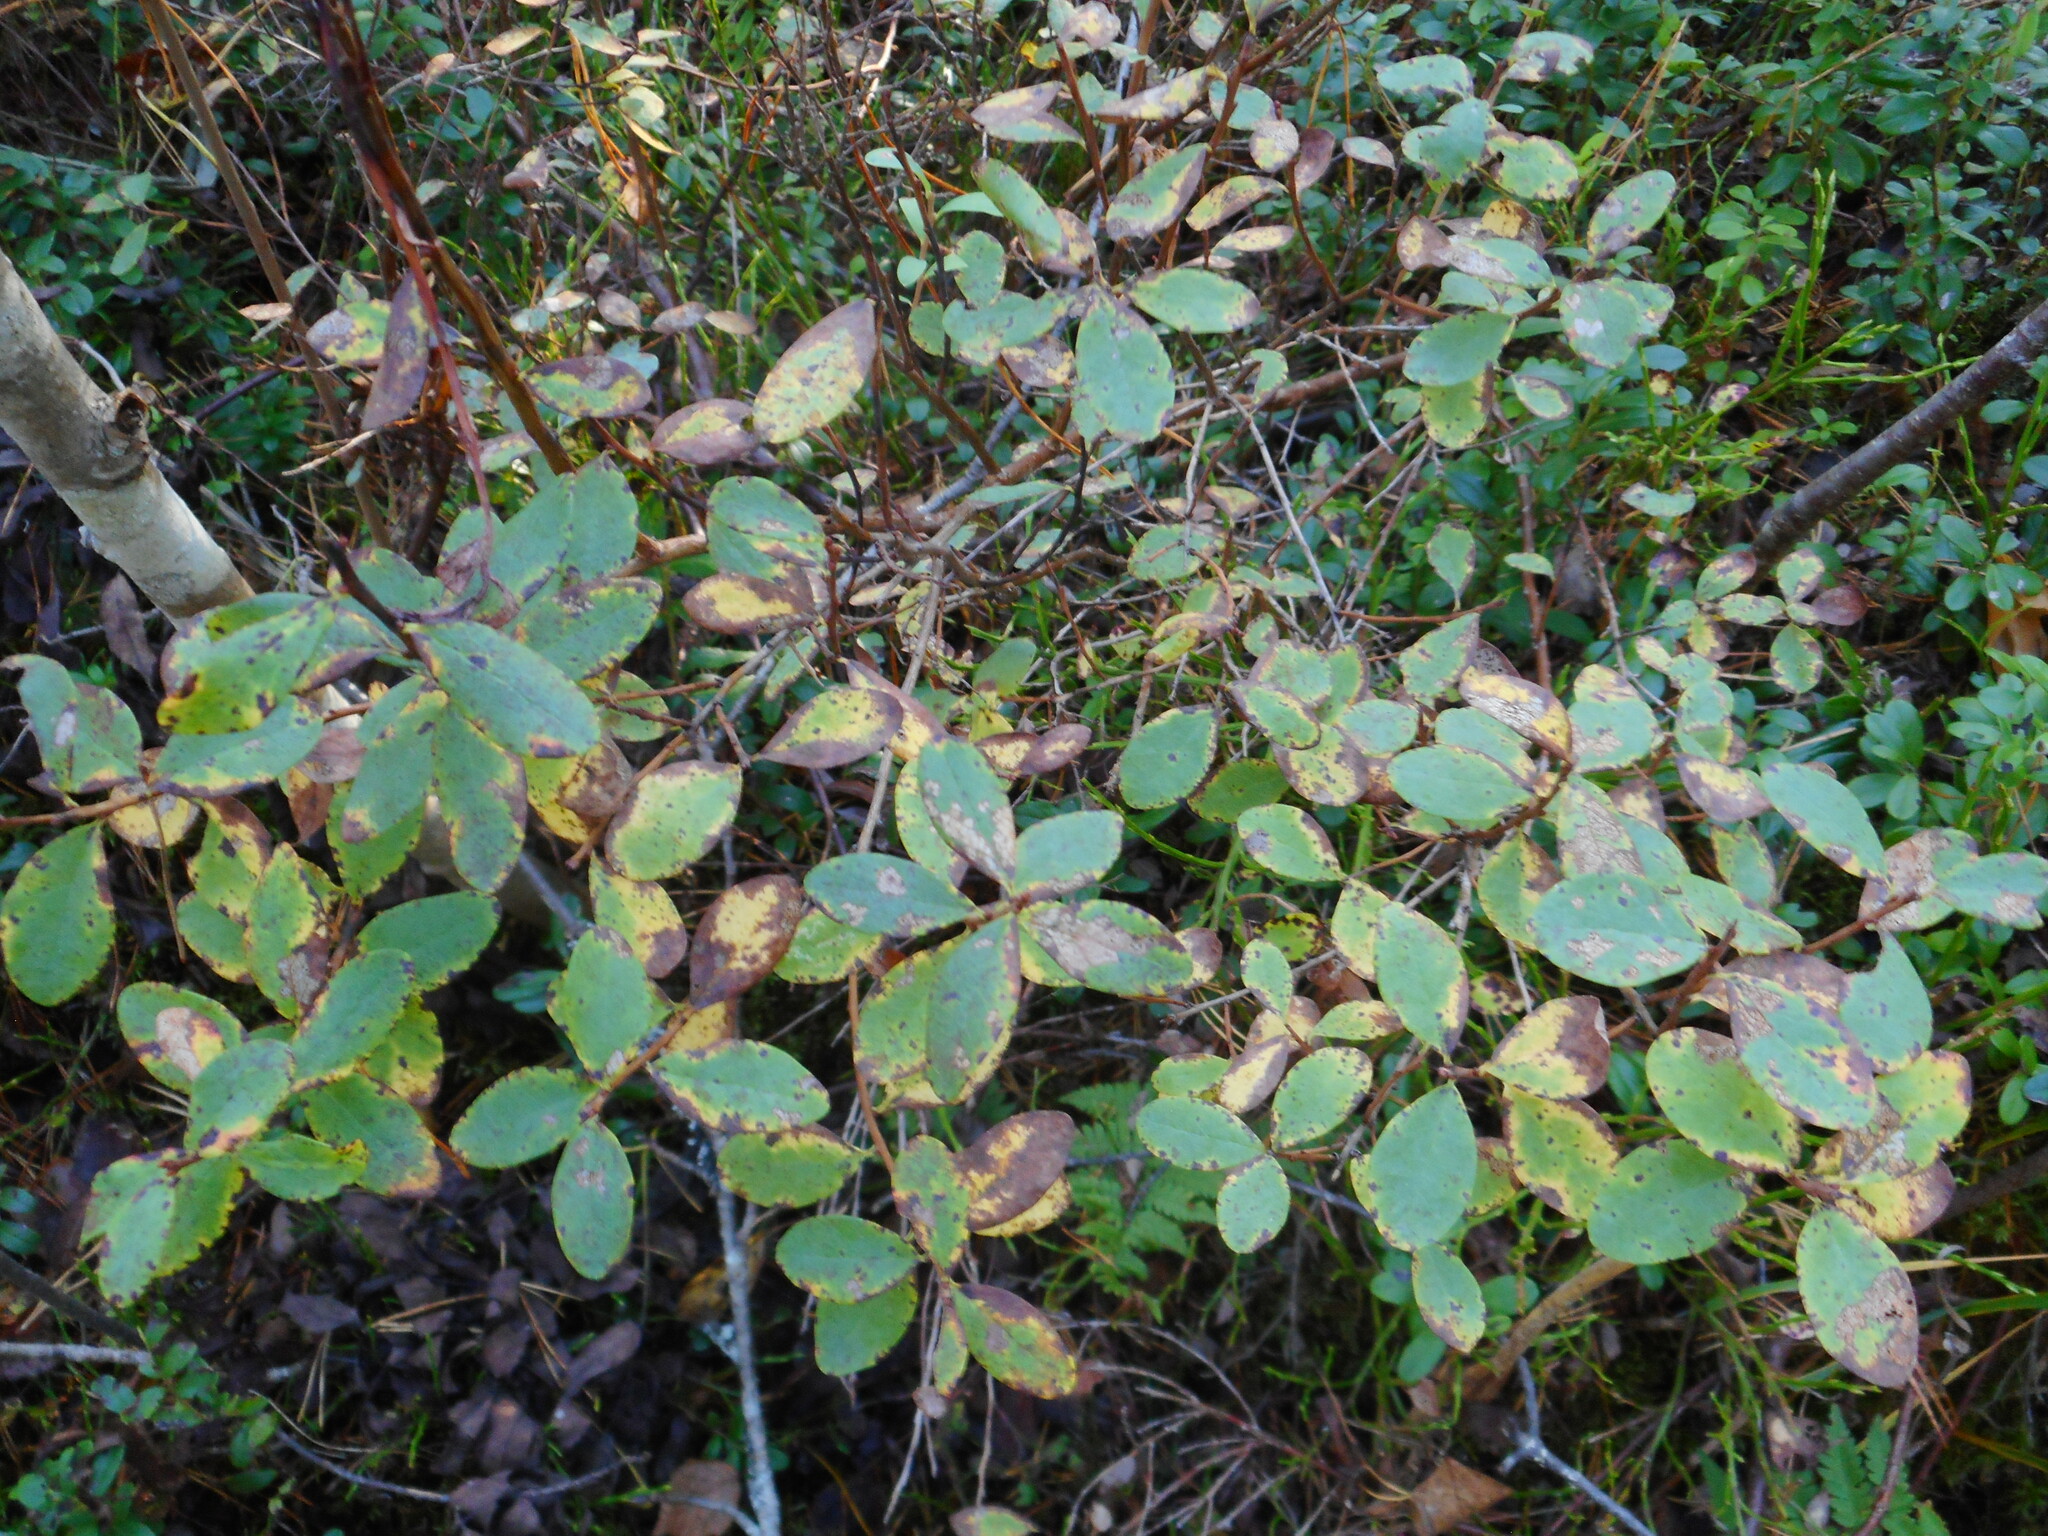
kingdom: Plantae
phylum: Tracheophyta
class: Magnoliopsida
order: Ericales
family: Ericaceae
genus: Vaccinium
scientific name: Vaccinium uliginosum
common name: Bog bilberry
